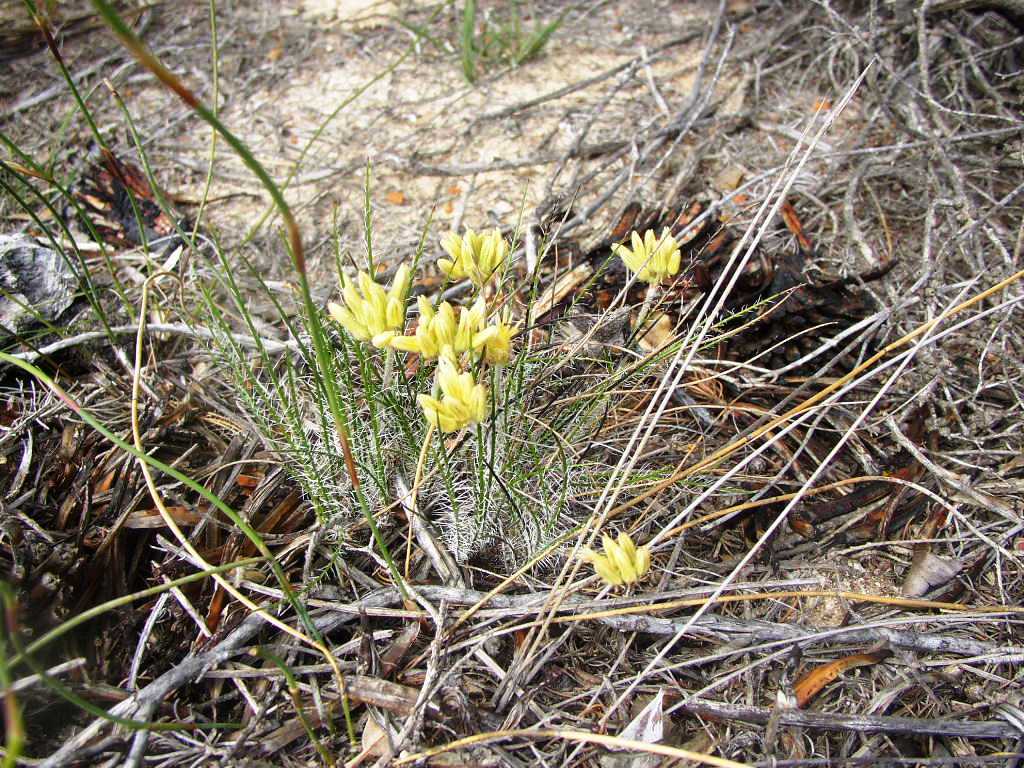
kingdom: Plantae
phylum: Tracheophyta
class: Liliopsida
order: Commelinales
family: Haemodoraceae
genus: Conostylis
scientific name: Conostylis setigera
